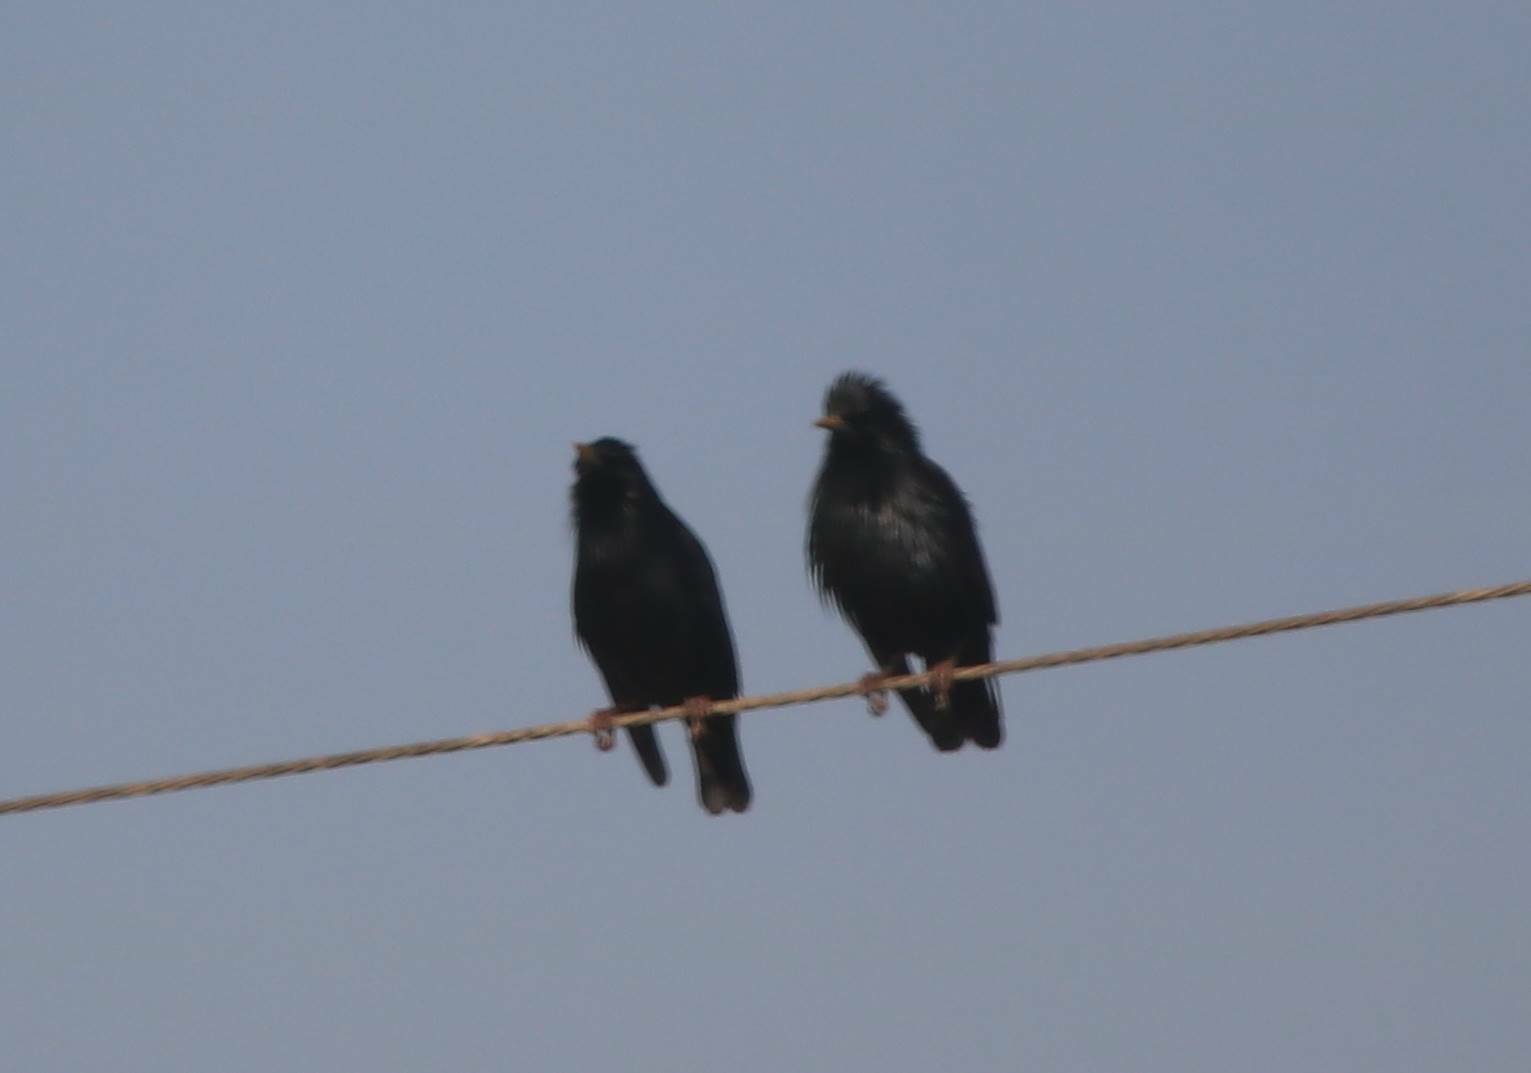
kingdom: Animalia
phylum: Chordata
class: Aves
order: Passeriformes
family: Sturnidae
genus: Sturnus
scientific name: Sturnus unicolor
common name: Spotless starling
